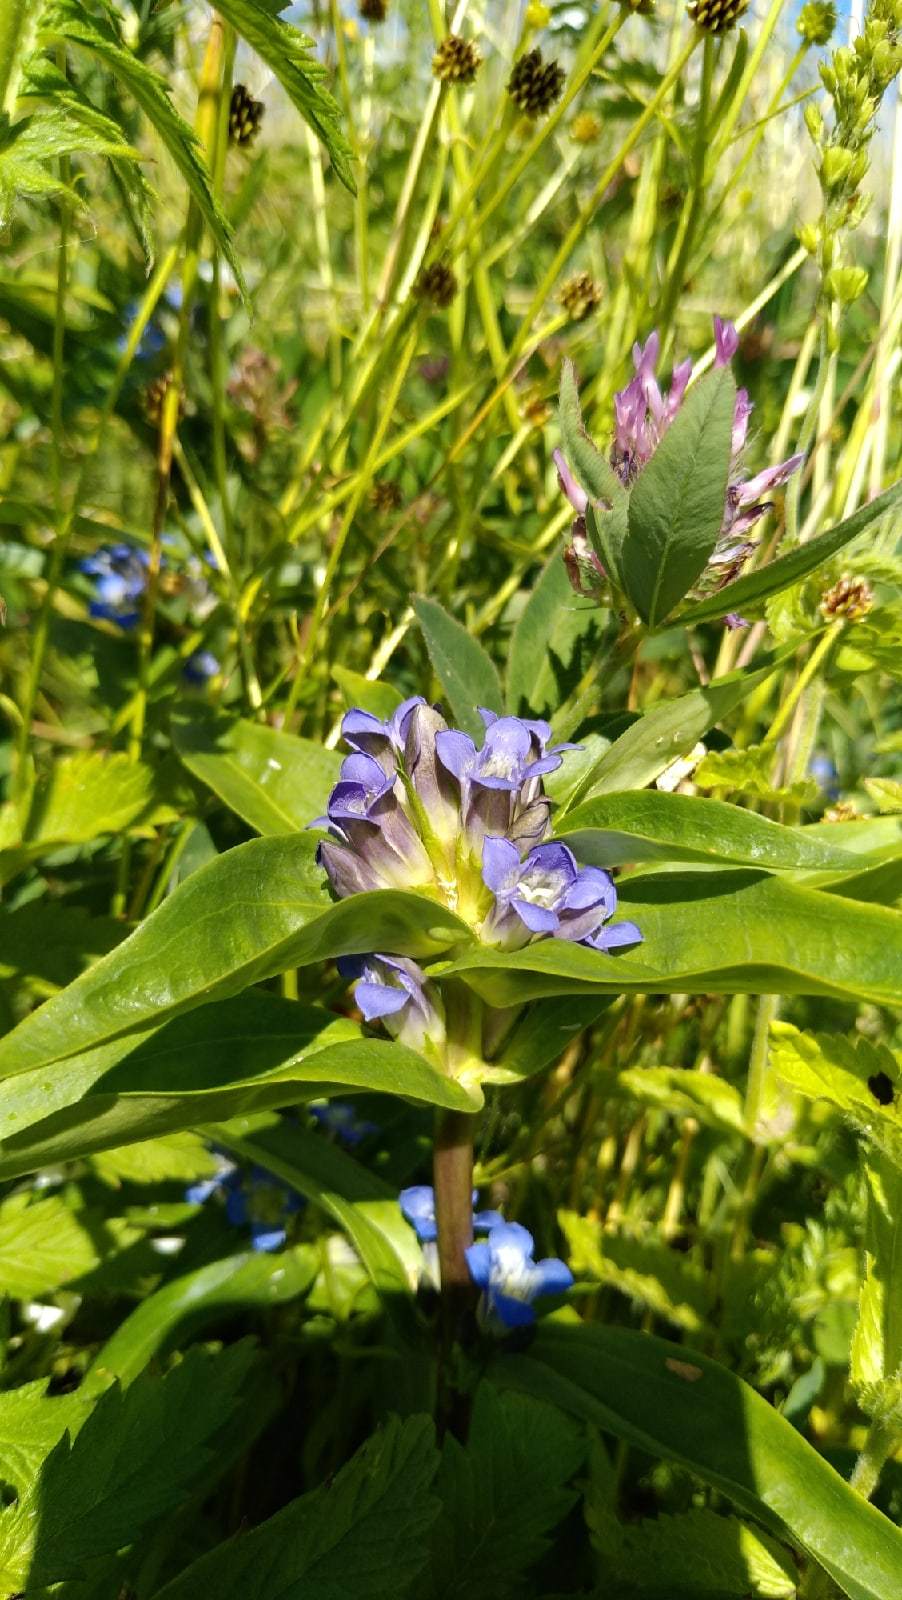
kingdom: Plantae
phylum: Tracheophyta
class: Magnoliopsida
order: Gentianales
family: Gentianaceae
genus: Gentiana
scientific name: Gentiana cruciata
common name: Cross gentian
